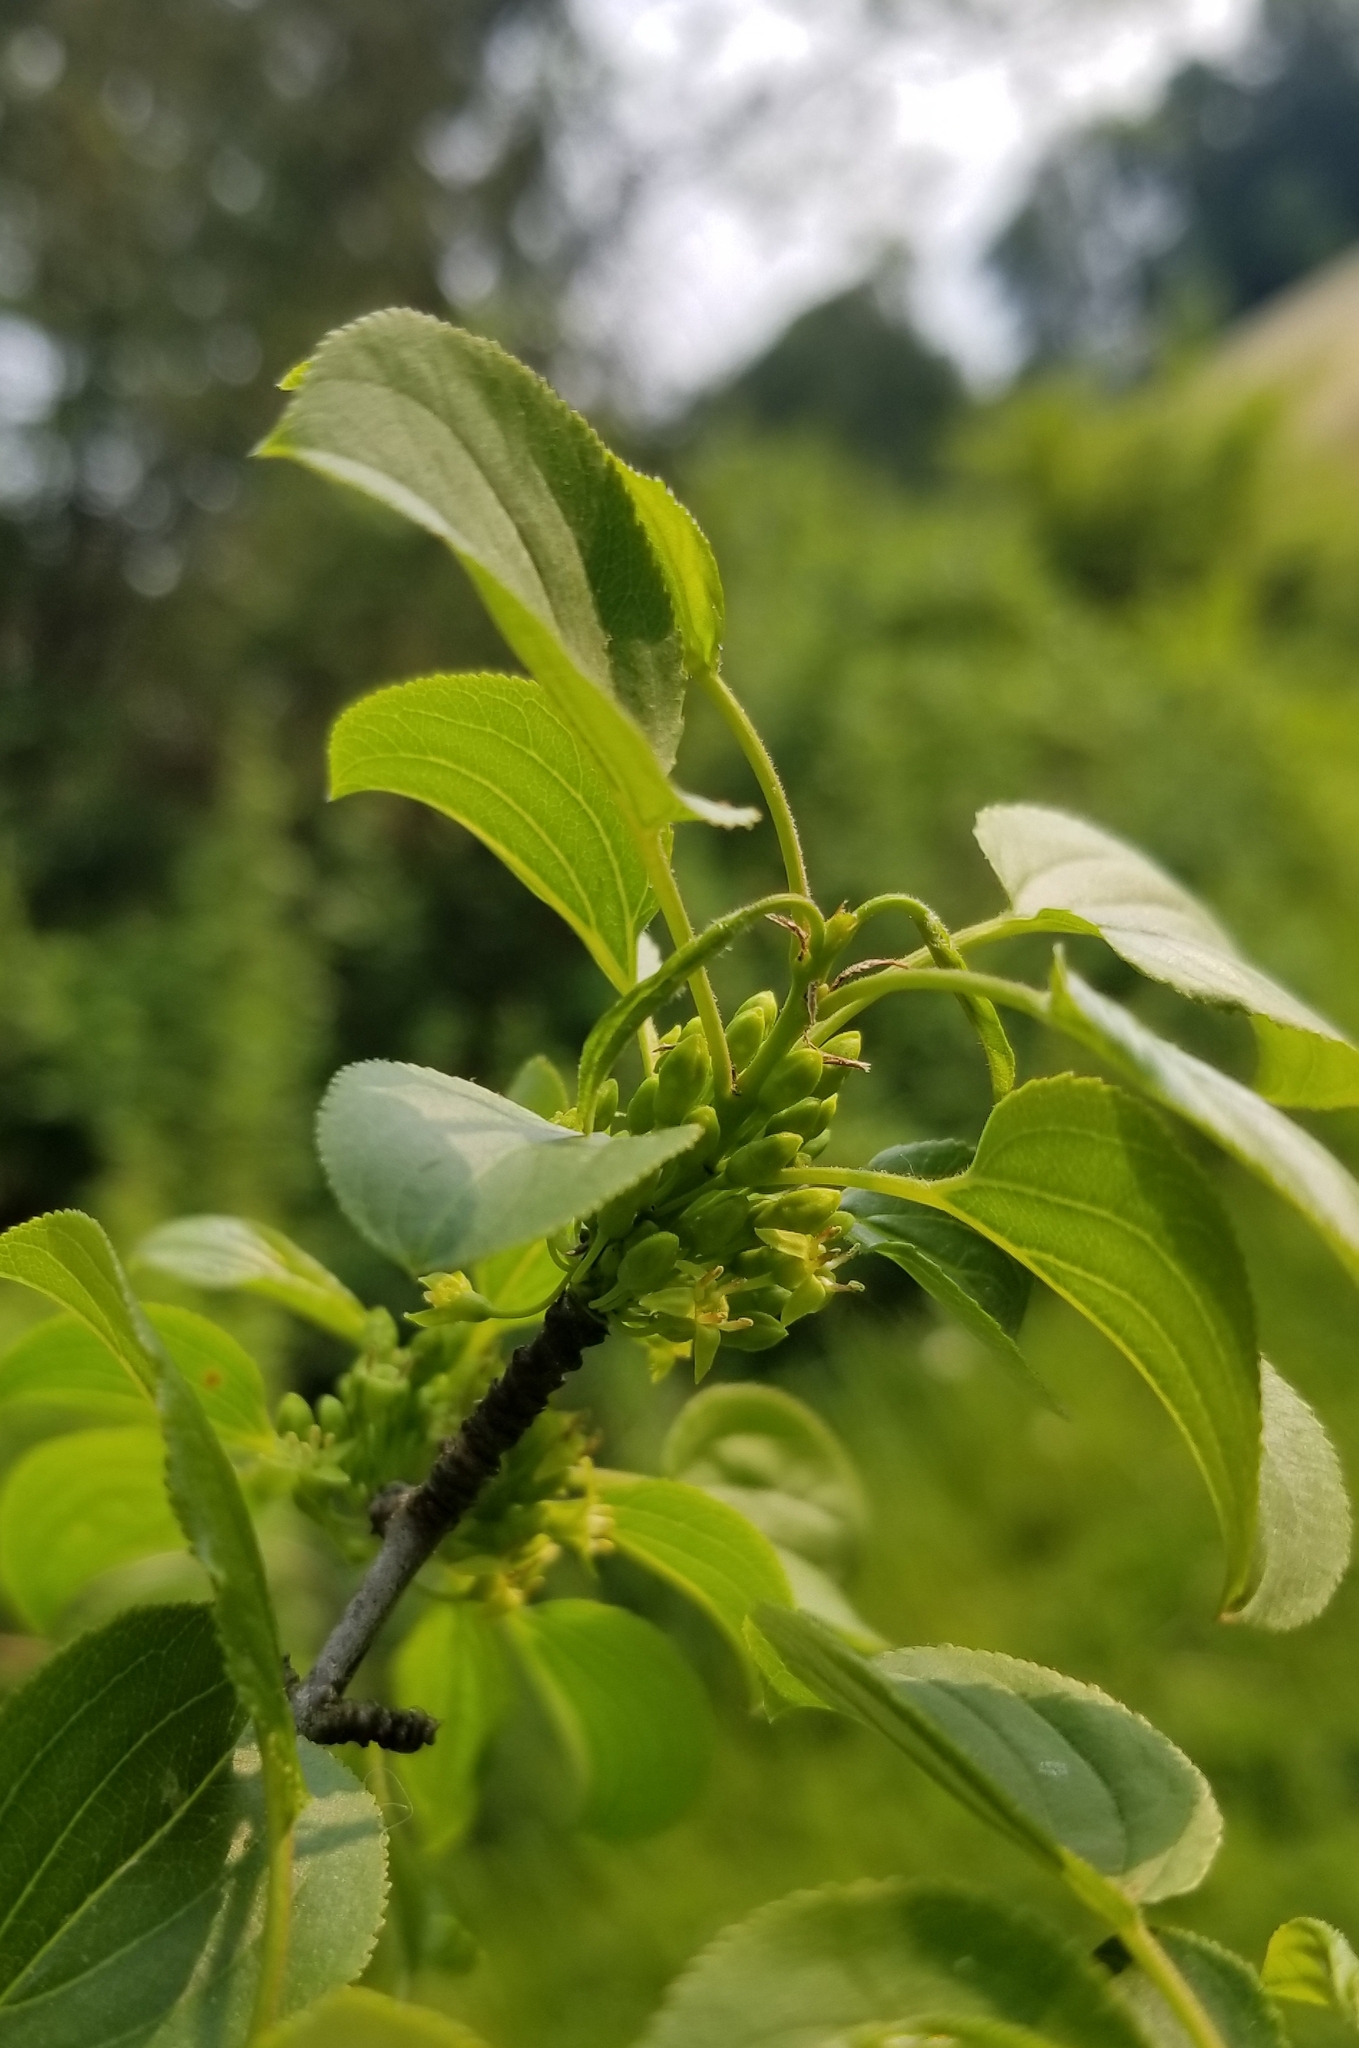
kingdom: Plantae
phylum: Tracheophyta
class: Magnoliopsida
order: Rosales
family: Rhamnaceae
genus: Rhamnus
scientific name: Rhamnus cathartica
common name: Common buckthorn
